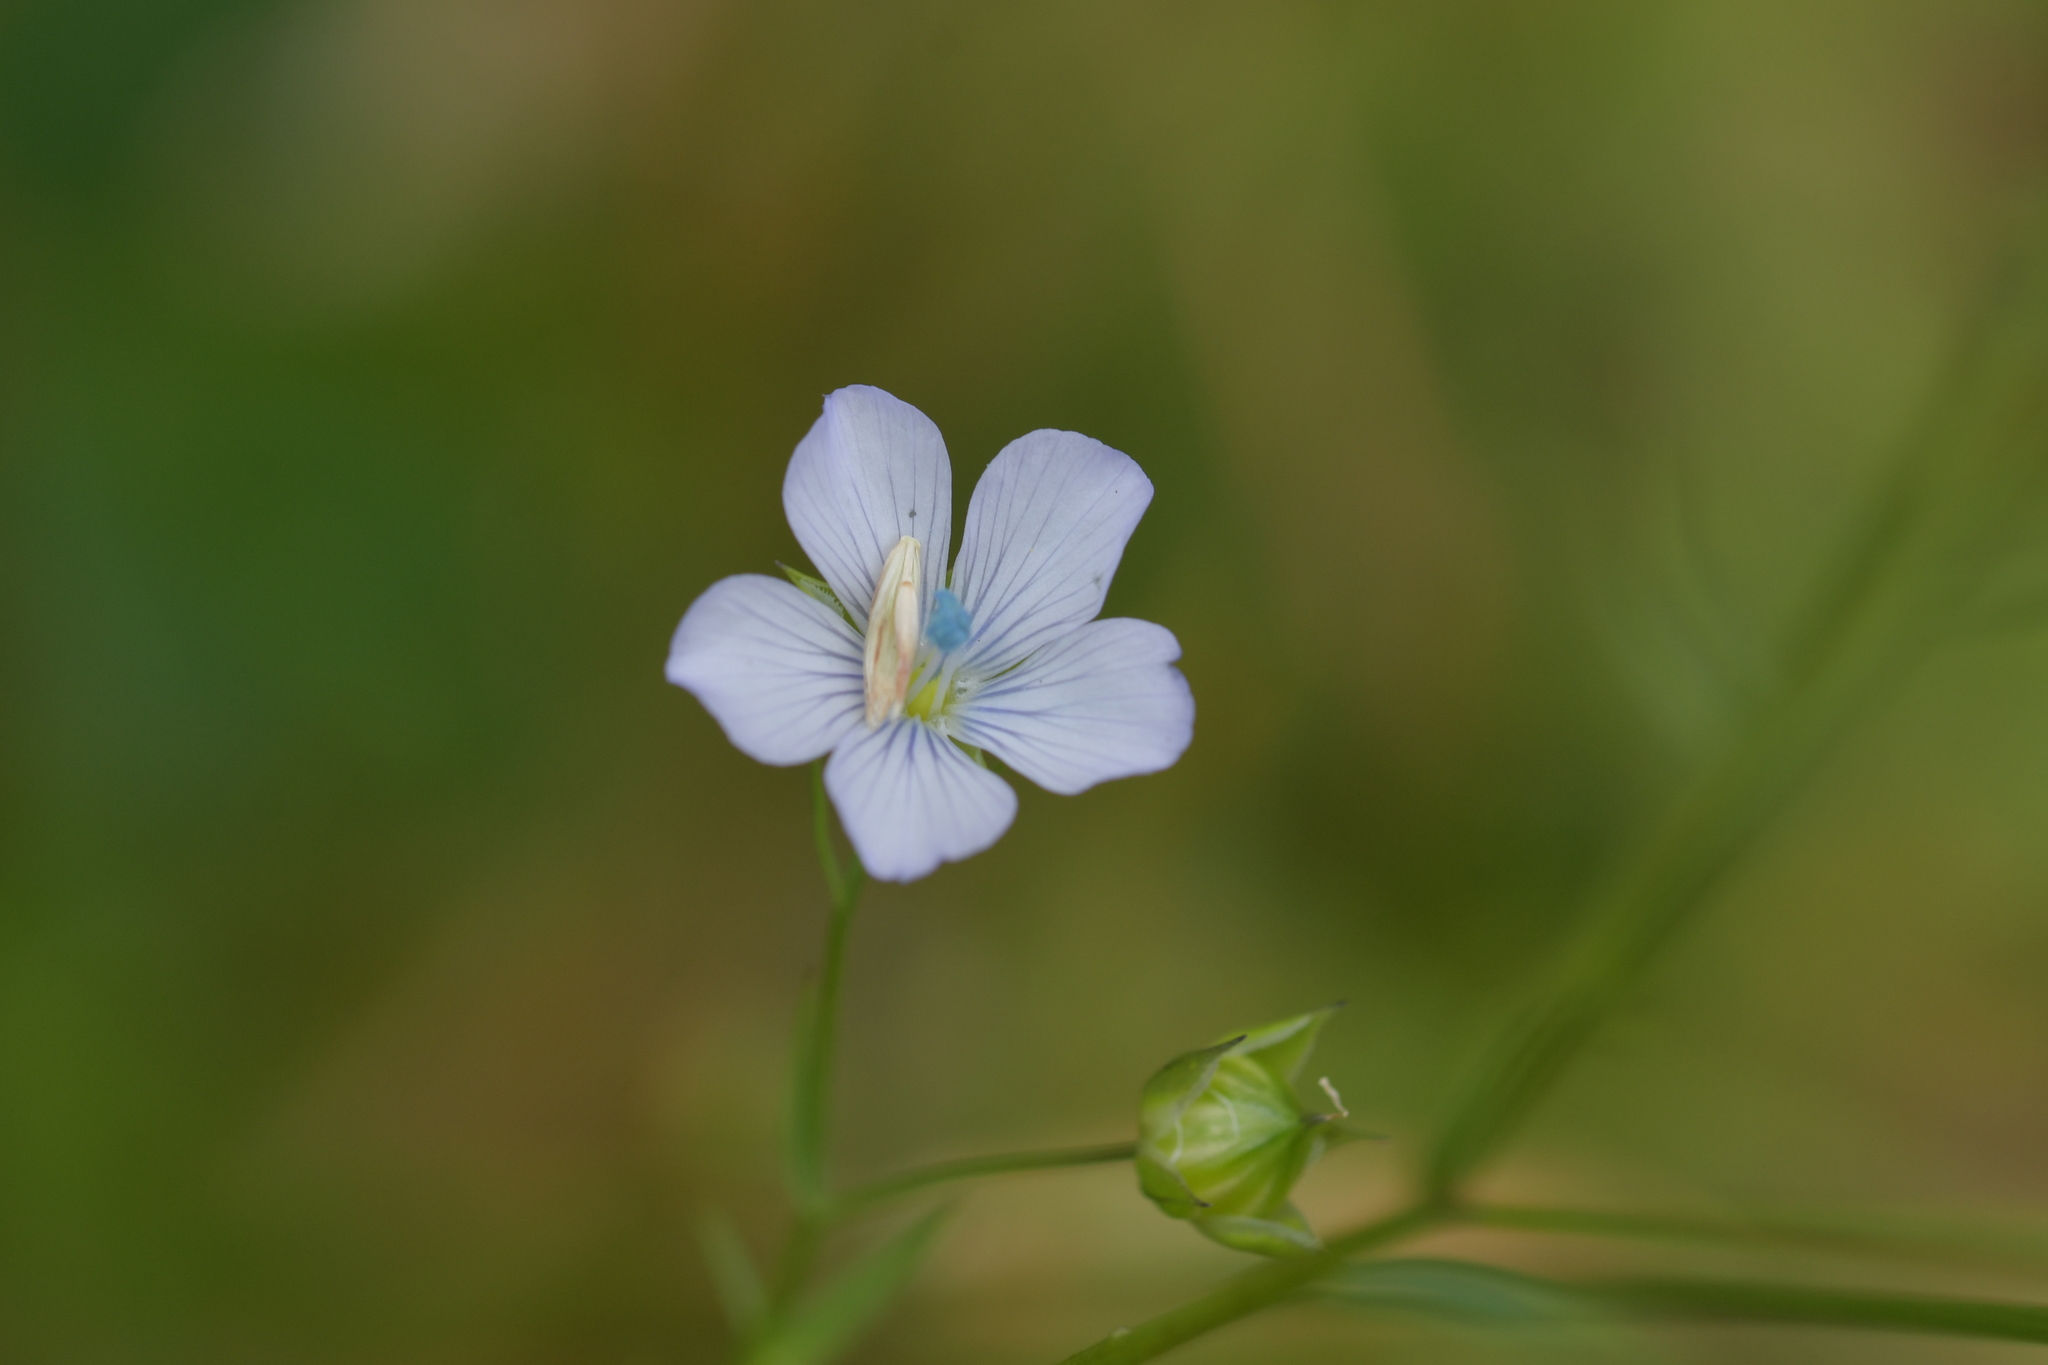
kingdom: Plantae
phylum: Tracheophyta
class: Magnoliopsida
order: Malpighiales
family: Linaceae
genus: Linum
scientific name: Linum bienne
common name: Pale flax
